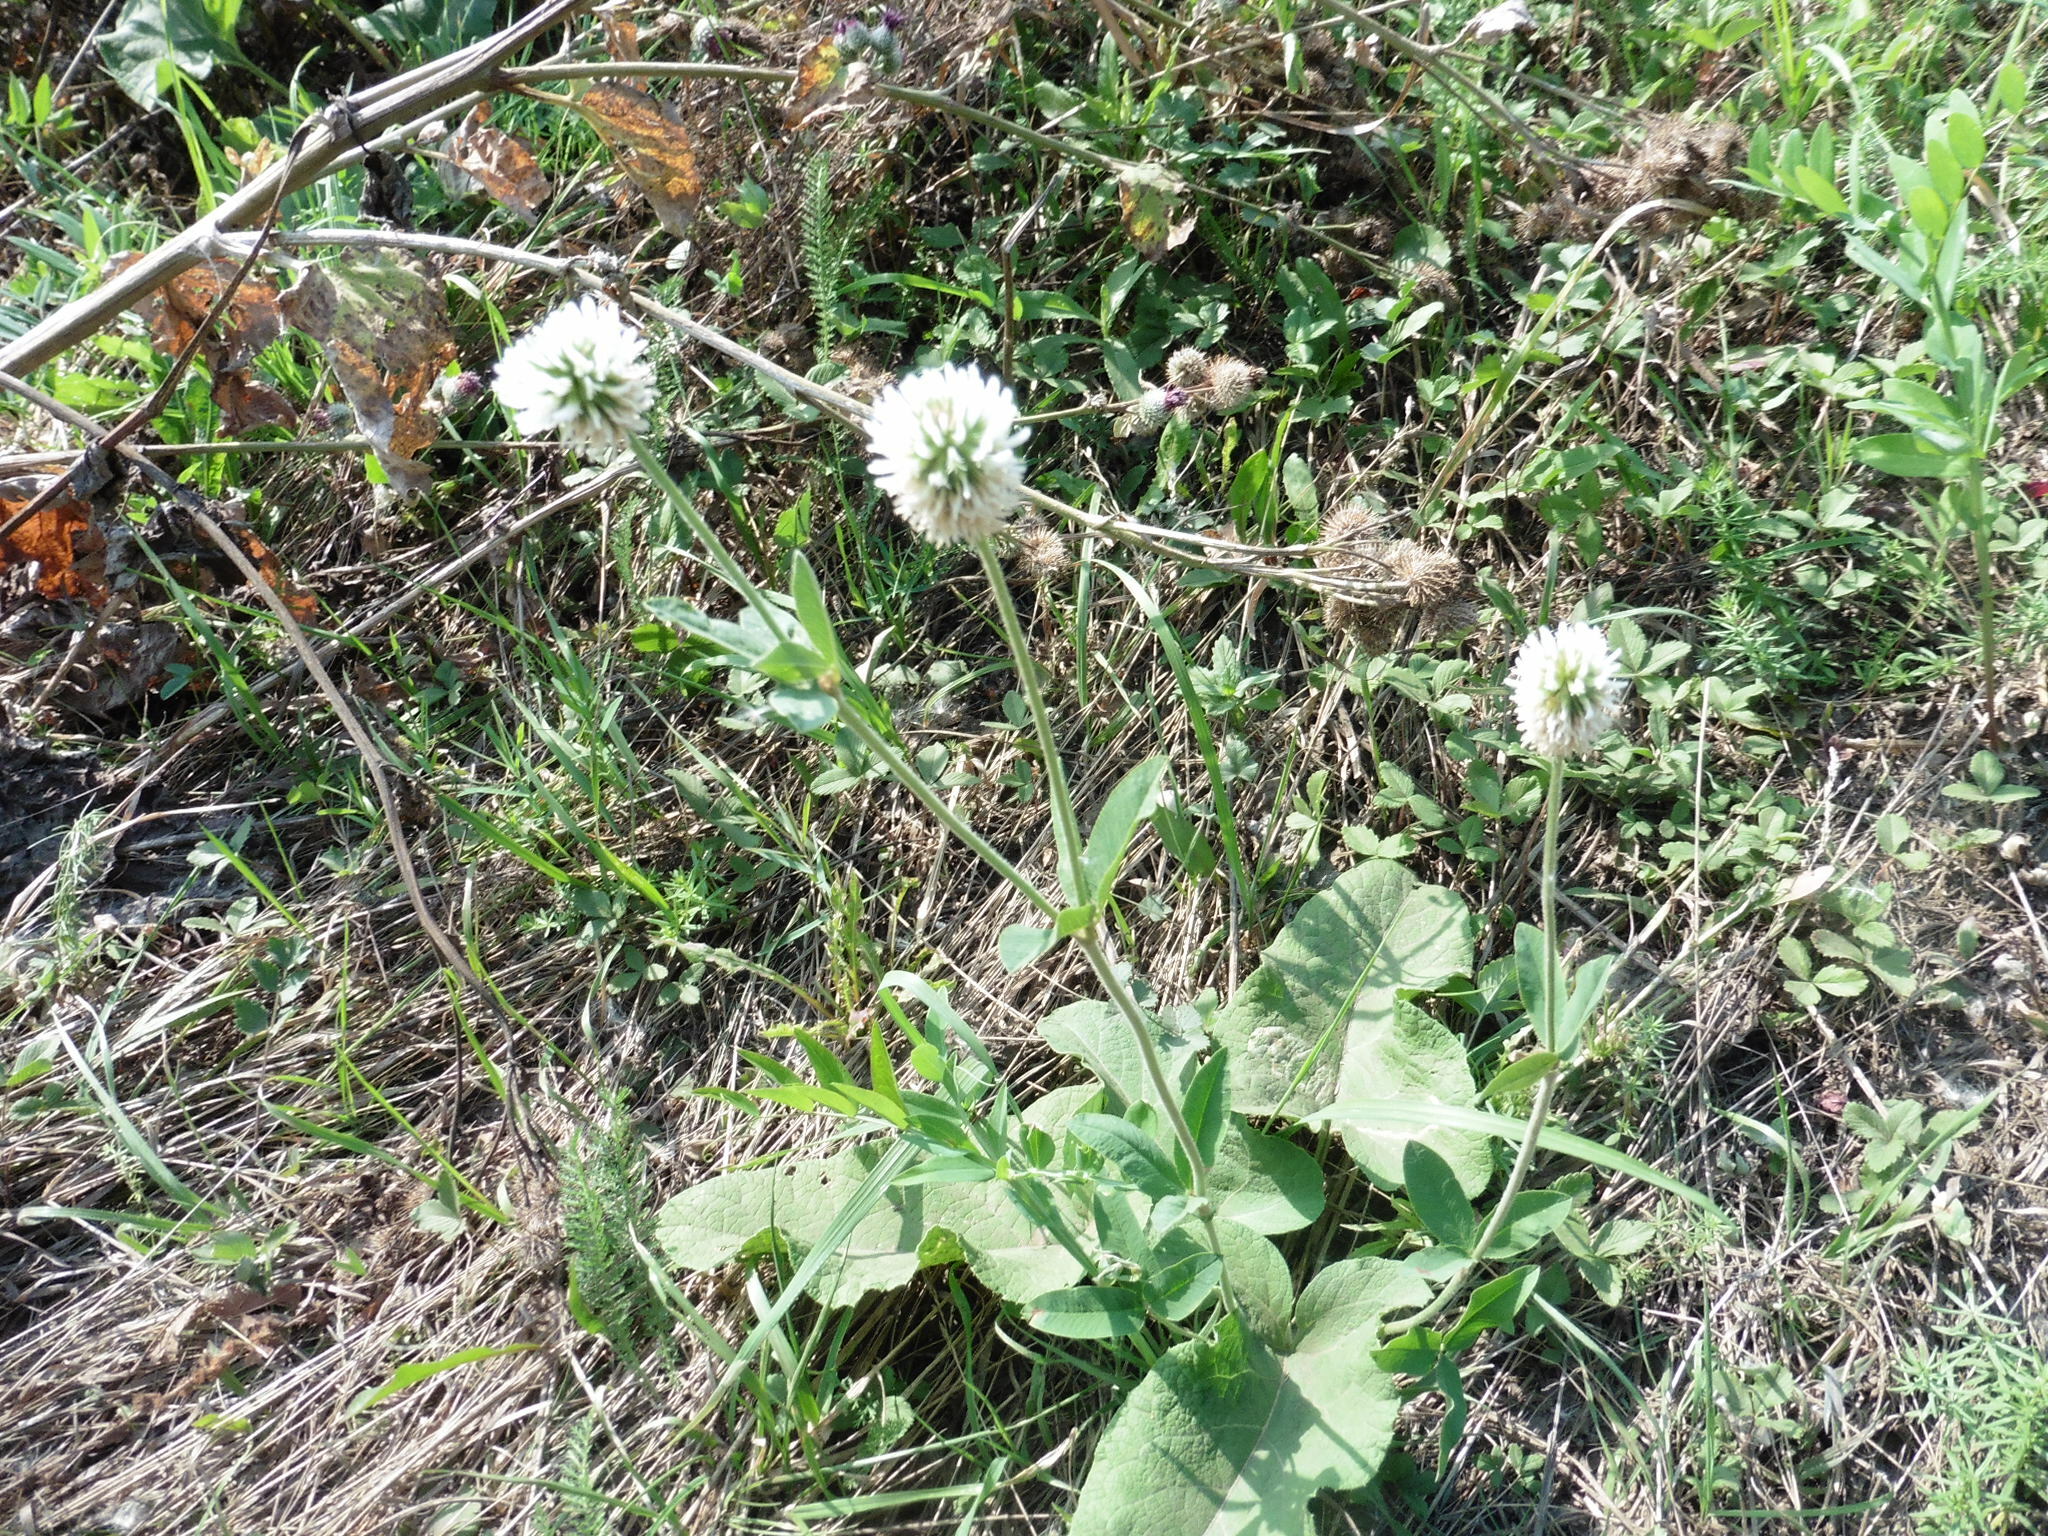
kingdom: Plantae
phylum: Tracheophyta
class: Magnoliopsida
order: Fabales
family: Fabaceae
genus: Trifolium
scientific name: Trifolium montanum
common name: Mountain clover
